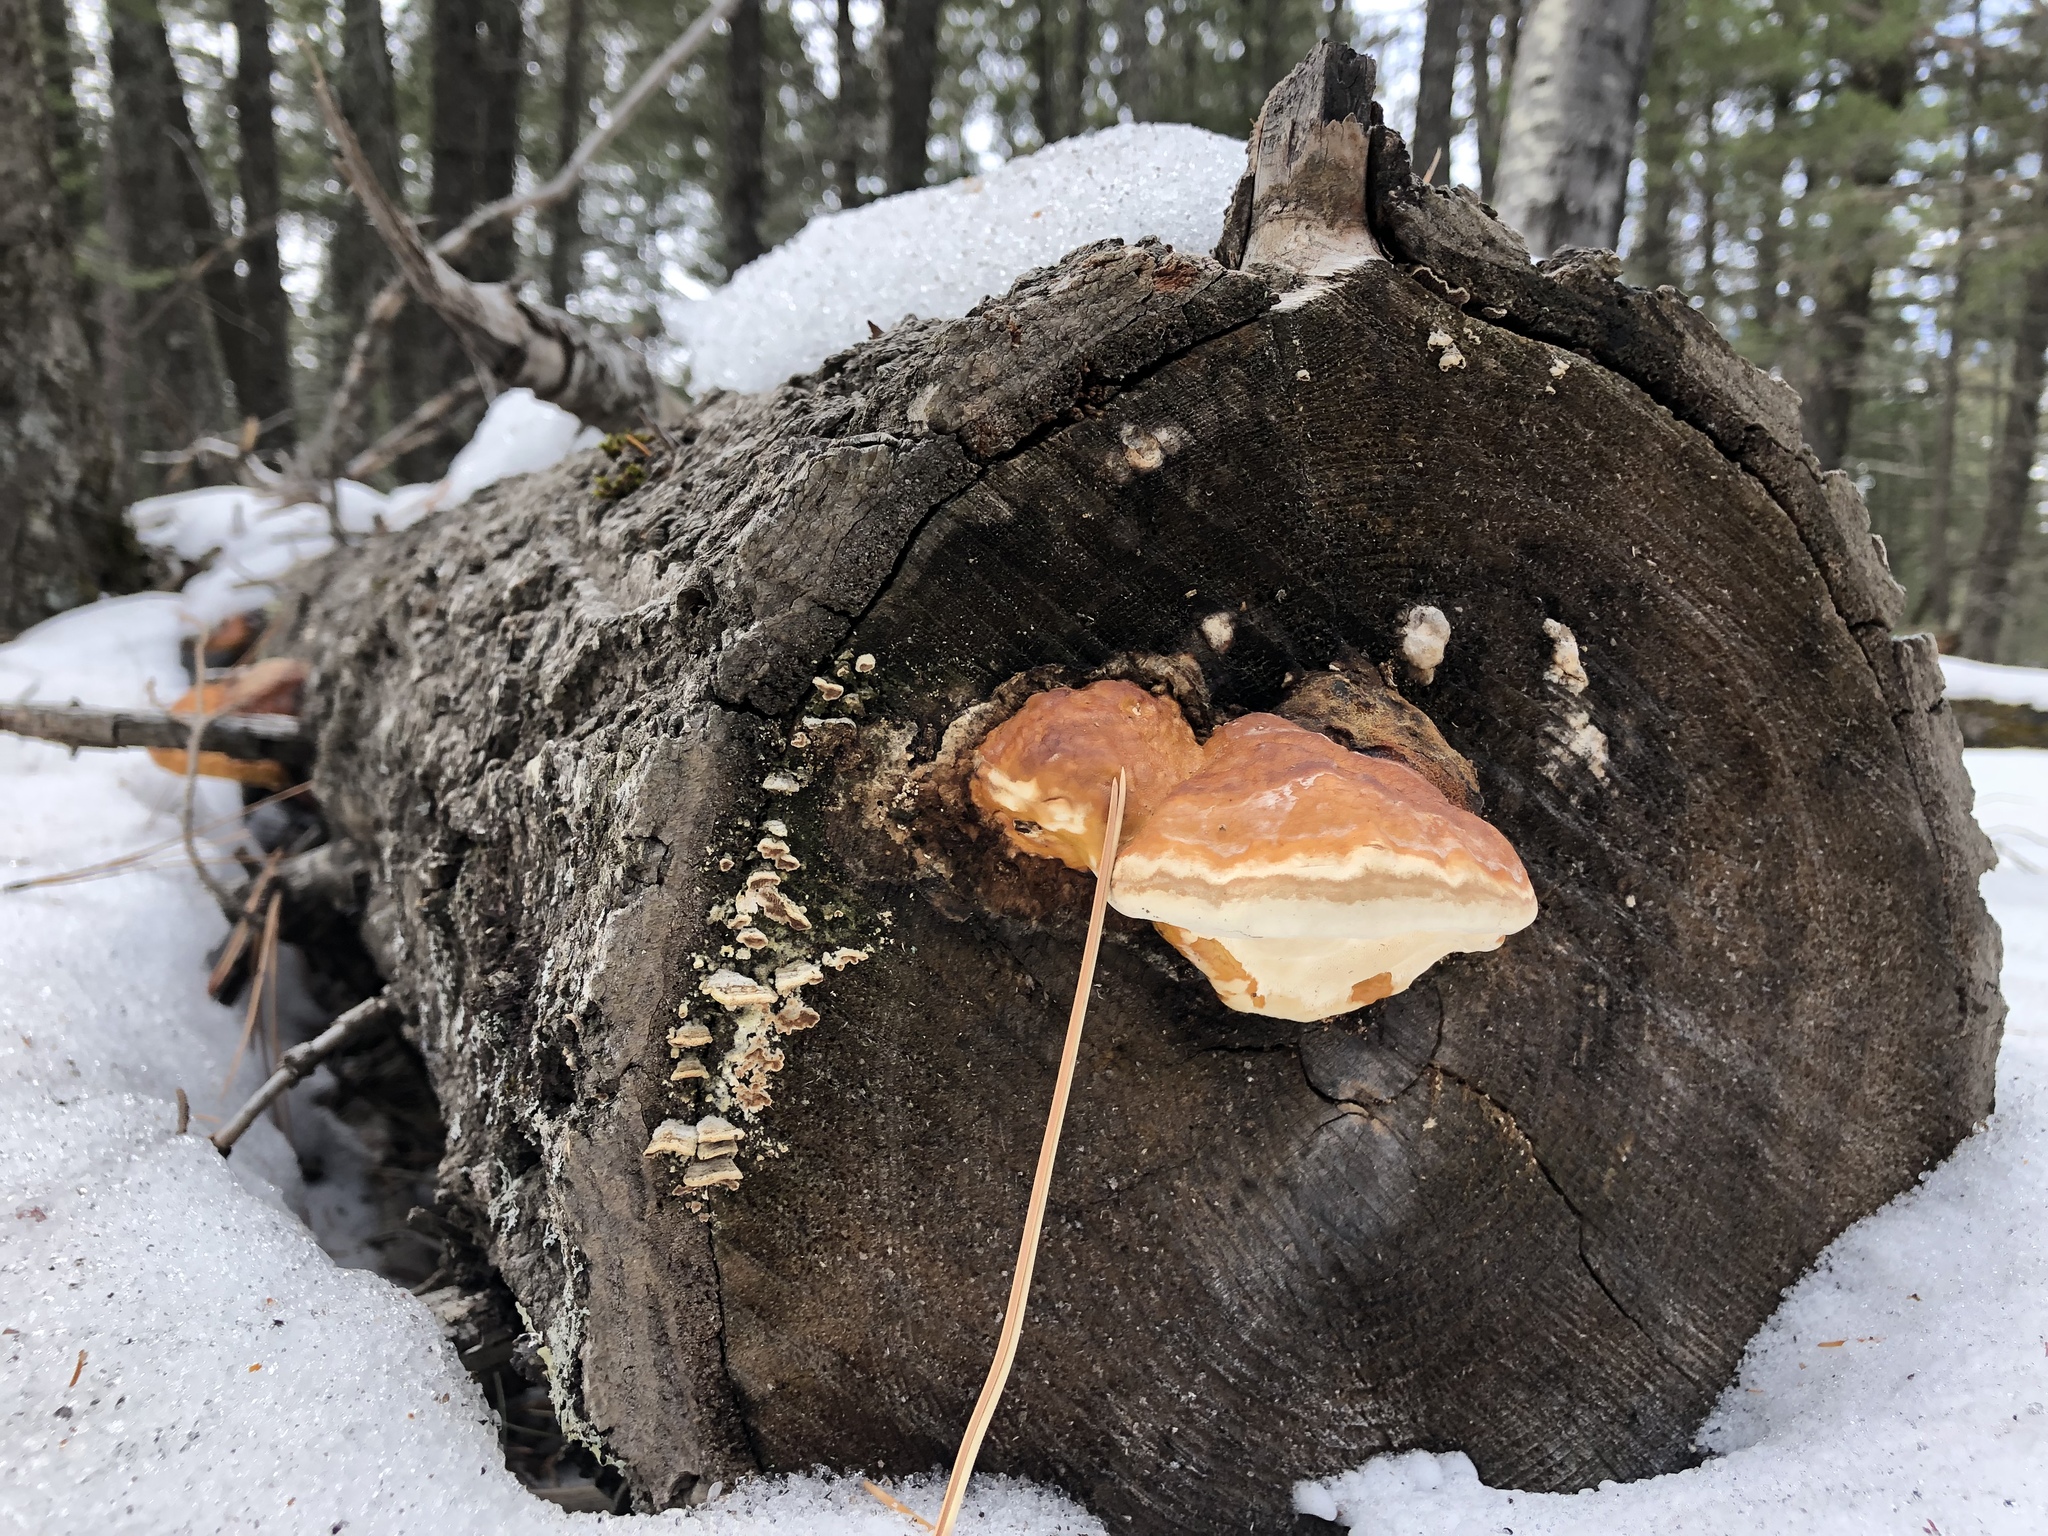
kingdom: Fungi
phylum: Basidiomycota
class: Agaricomycetes
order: Polyporales
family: Fomitopsidaceae
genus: Fomitopsis
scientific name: Fomitopsis schrenkii
